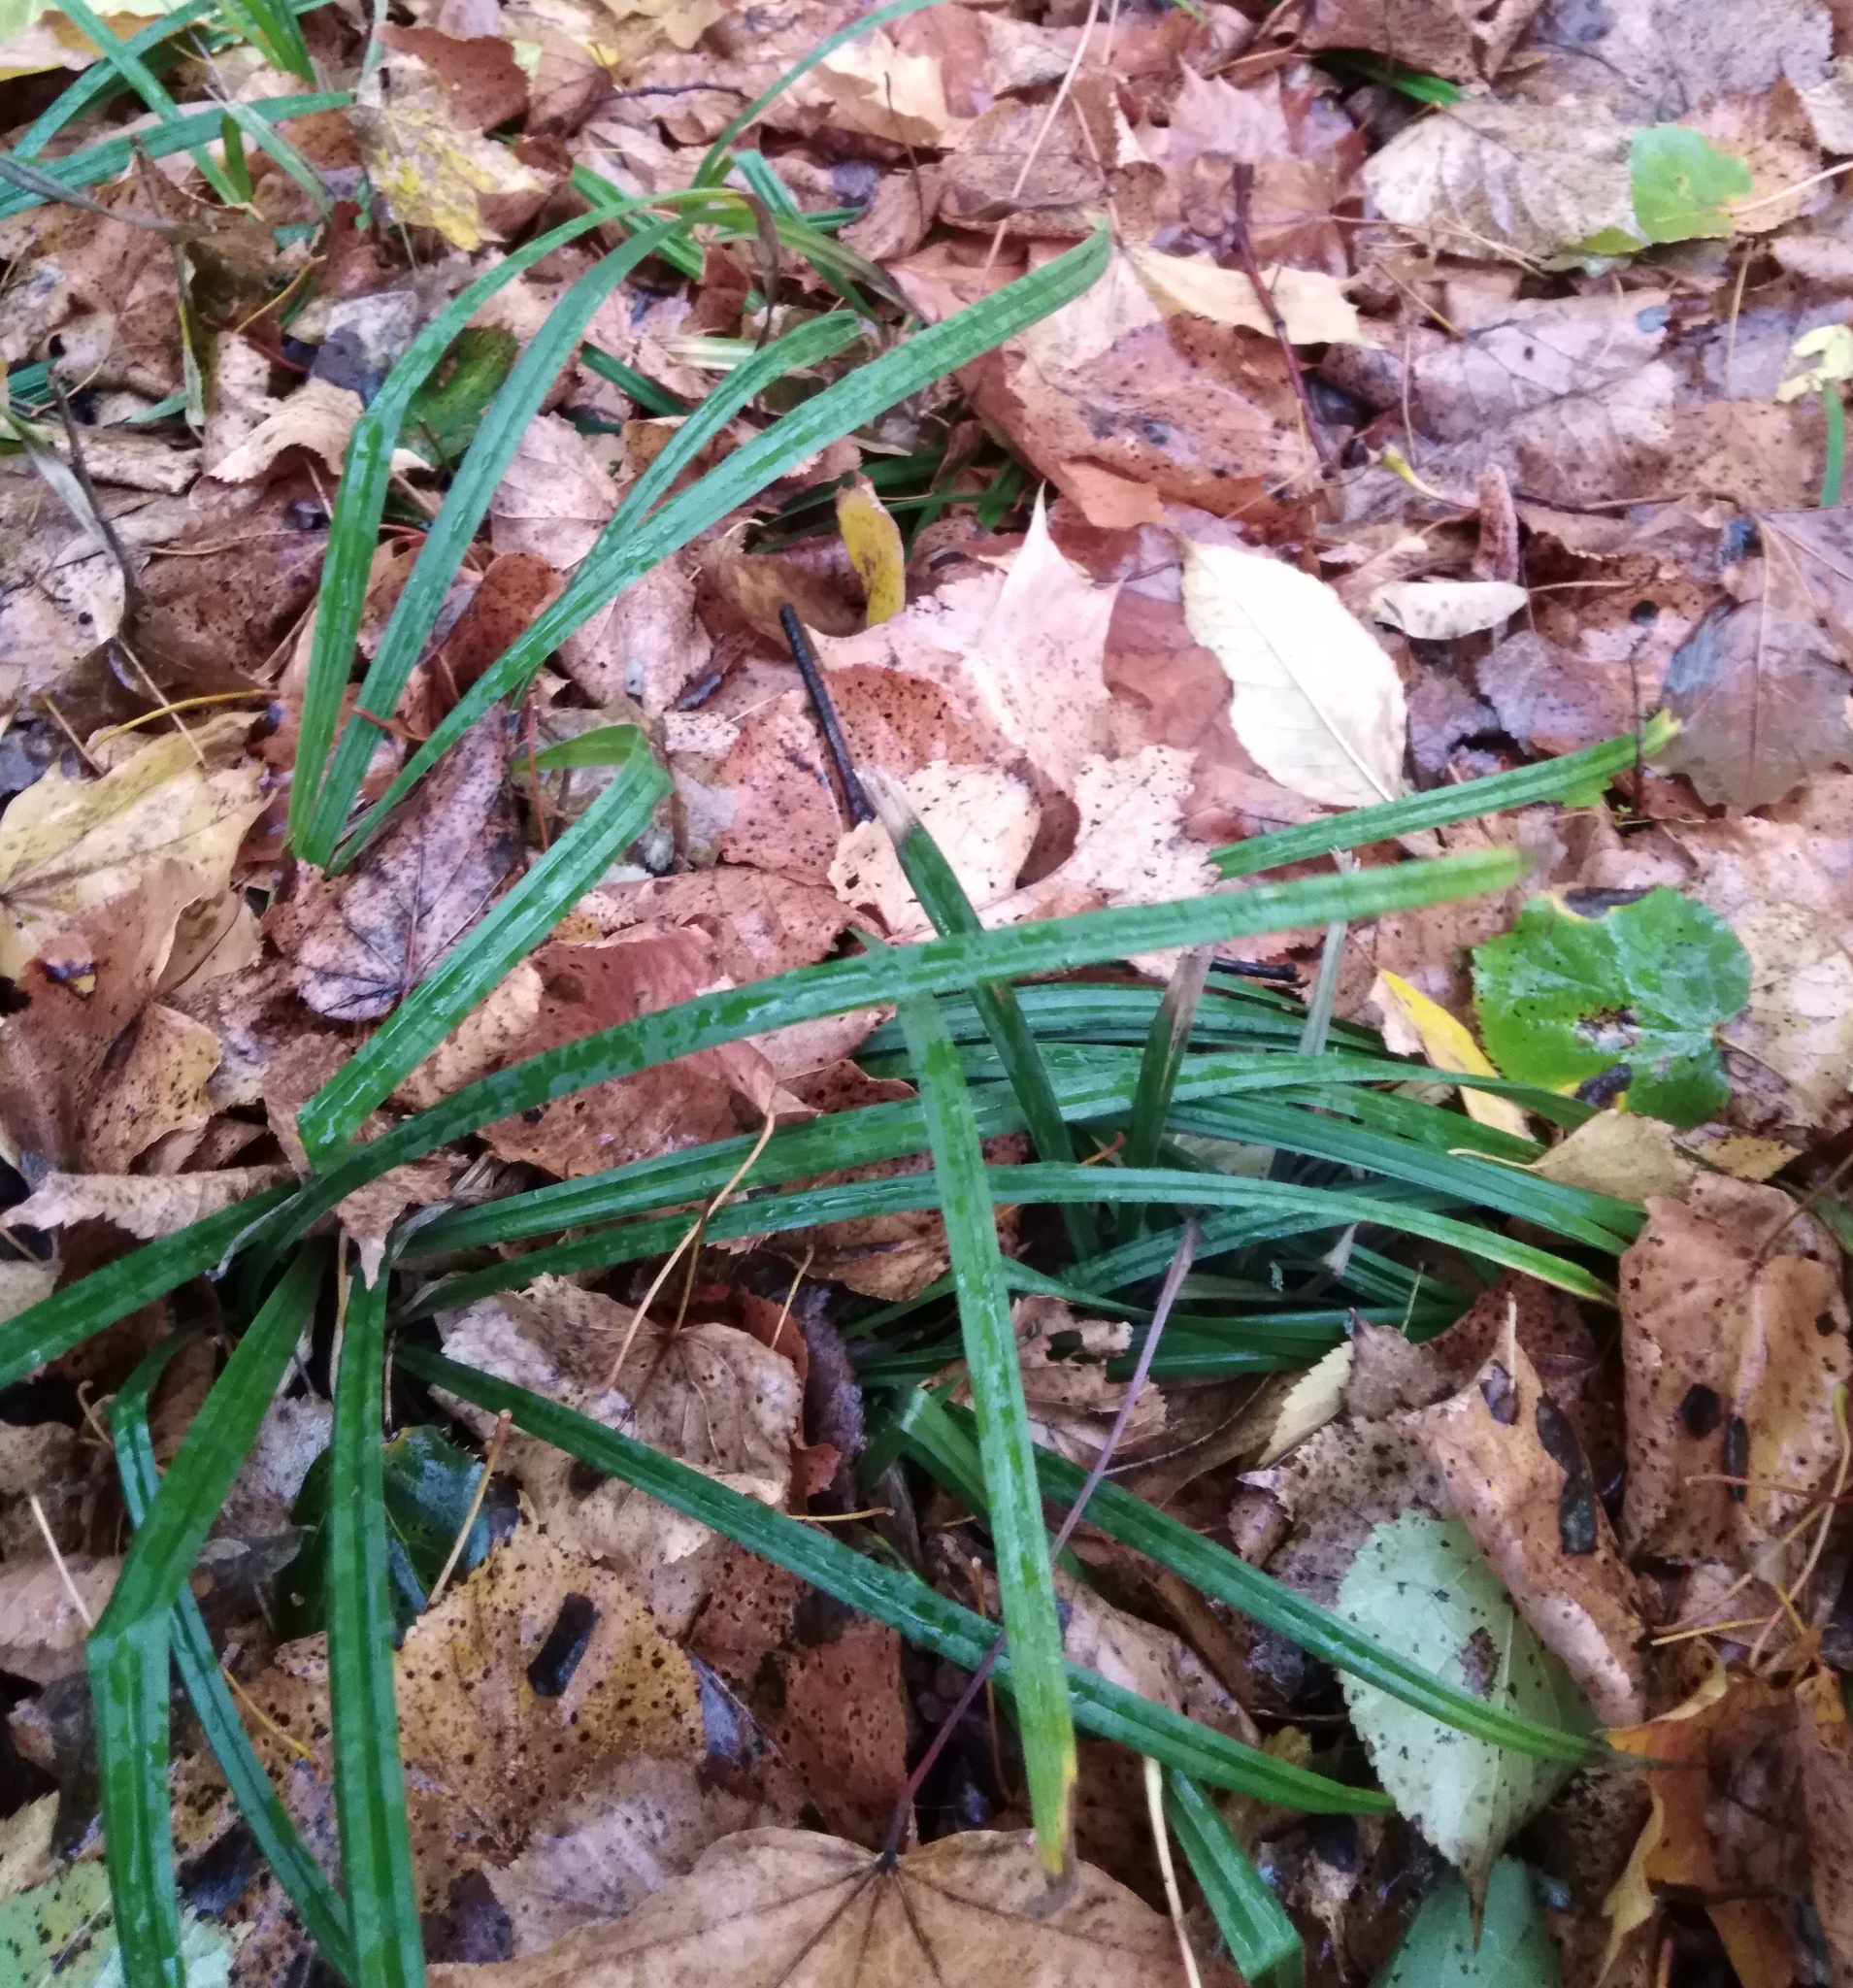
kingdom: Plantae
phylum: Tracheophyta
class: Liliopsida
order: Poales
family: Cyperaceae
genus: Carex
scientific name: Carex pilosa
